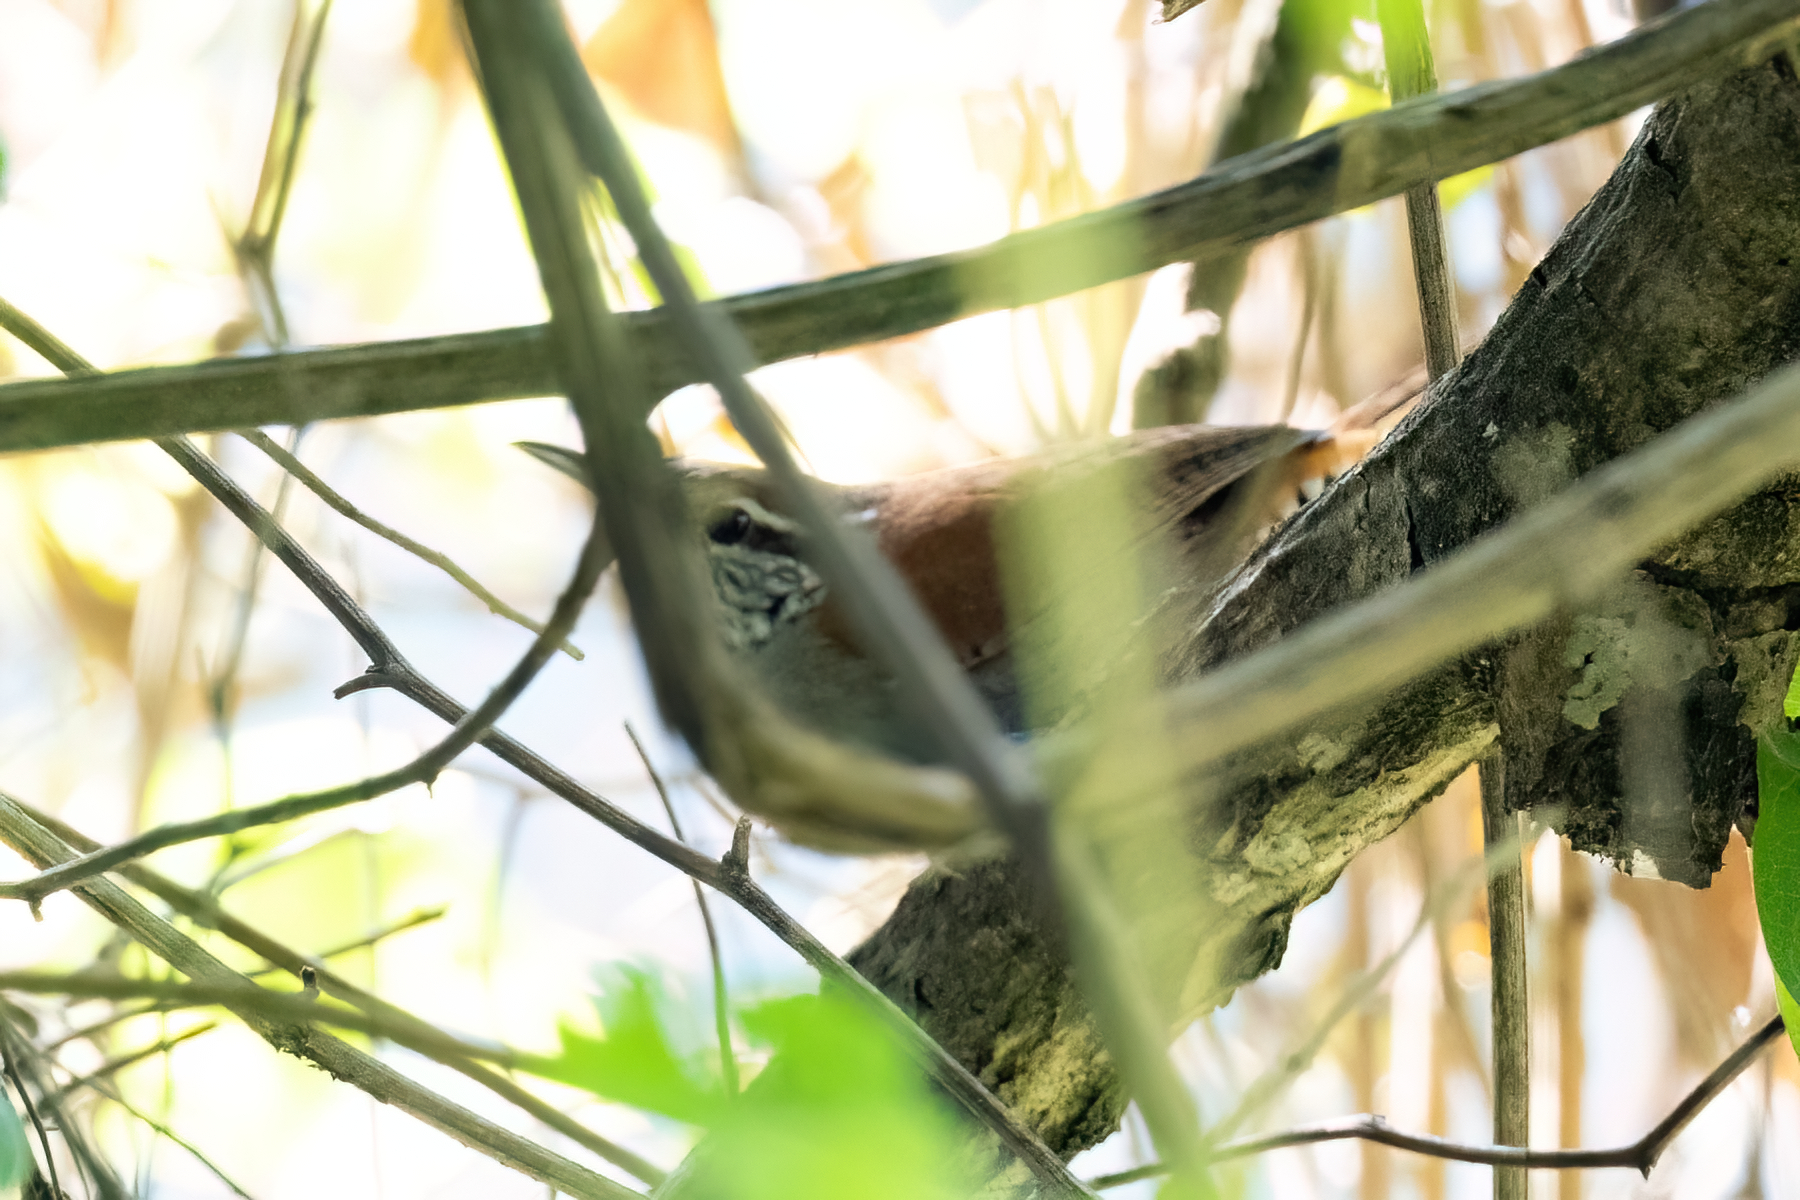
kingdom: Animalia
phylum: Chordata
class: Aves
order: Passeriformes
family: Troglodytidae
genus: Thryophilus
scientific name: Thryophilus rufalbus
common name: Rufous-and-white wren
